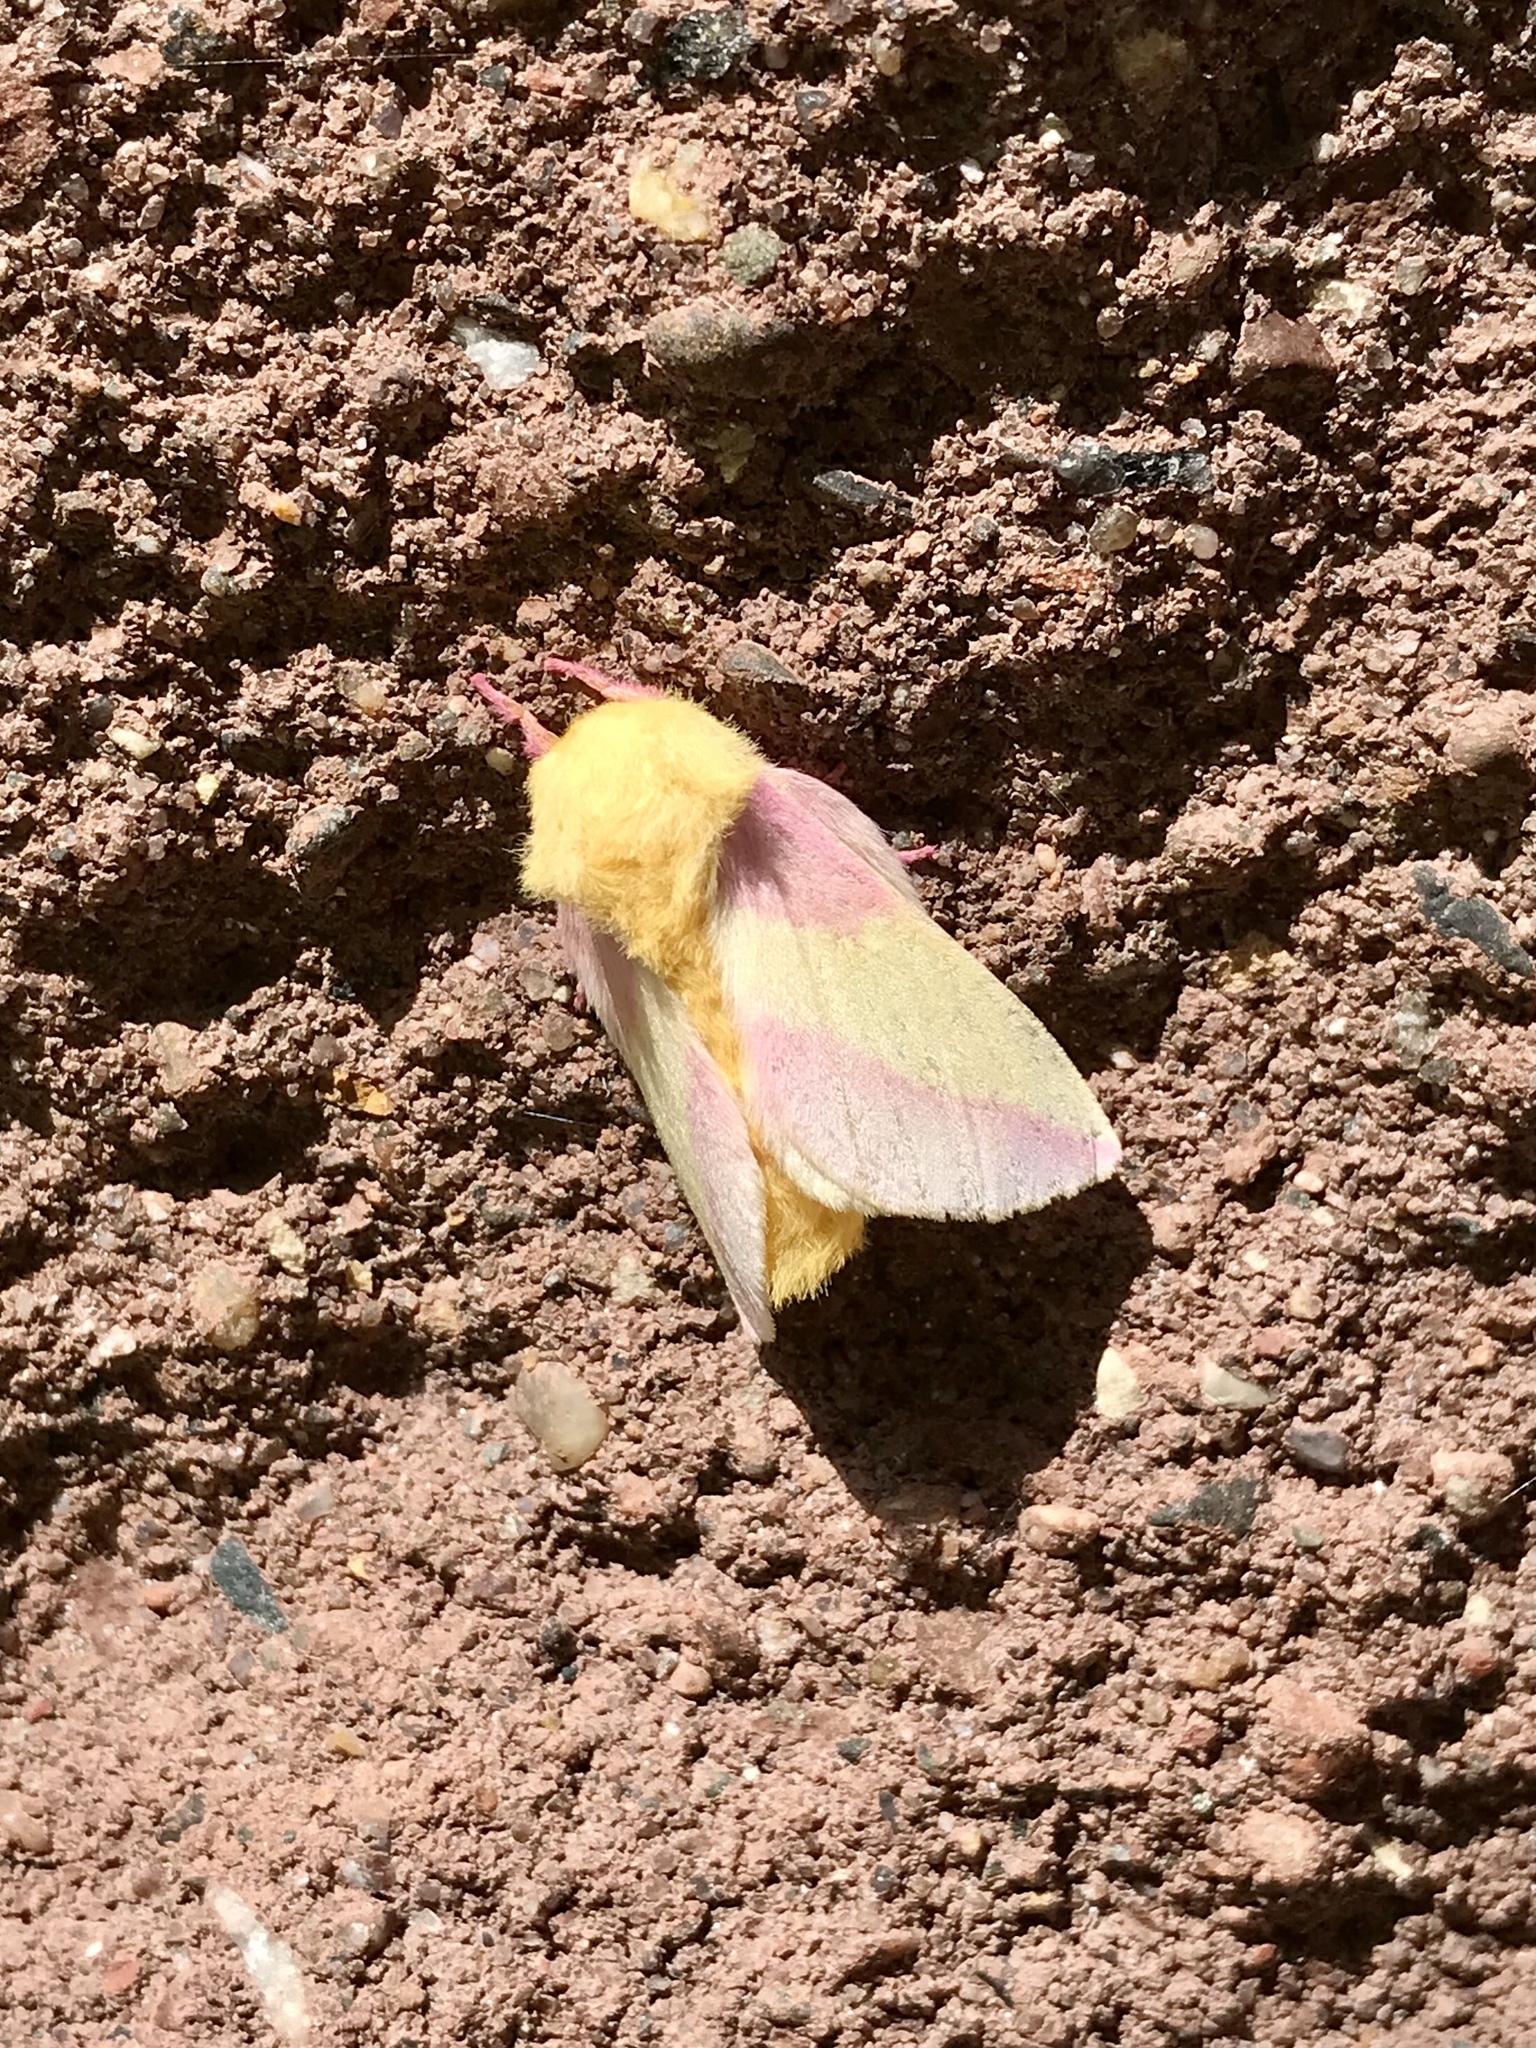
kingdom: Animalia
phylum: Arthropoda
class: Insecta
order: Lepidoptera
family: Saturniidae
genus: Dryocampa
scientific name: Dryocampa rubicunda
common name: Rosy maple moth
